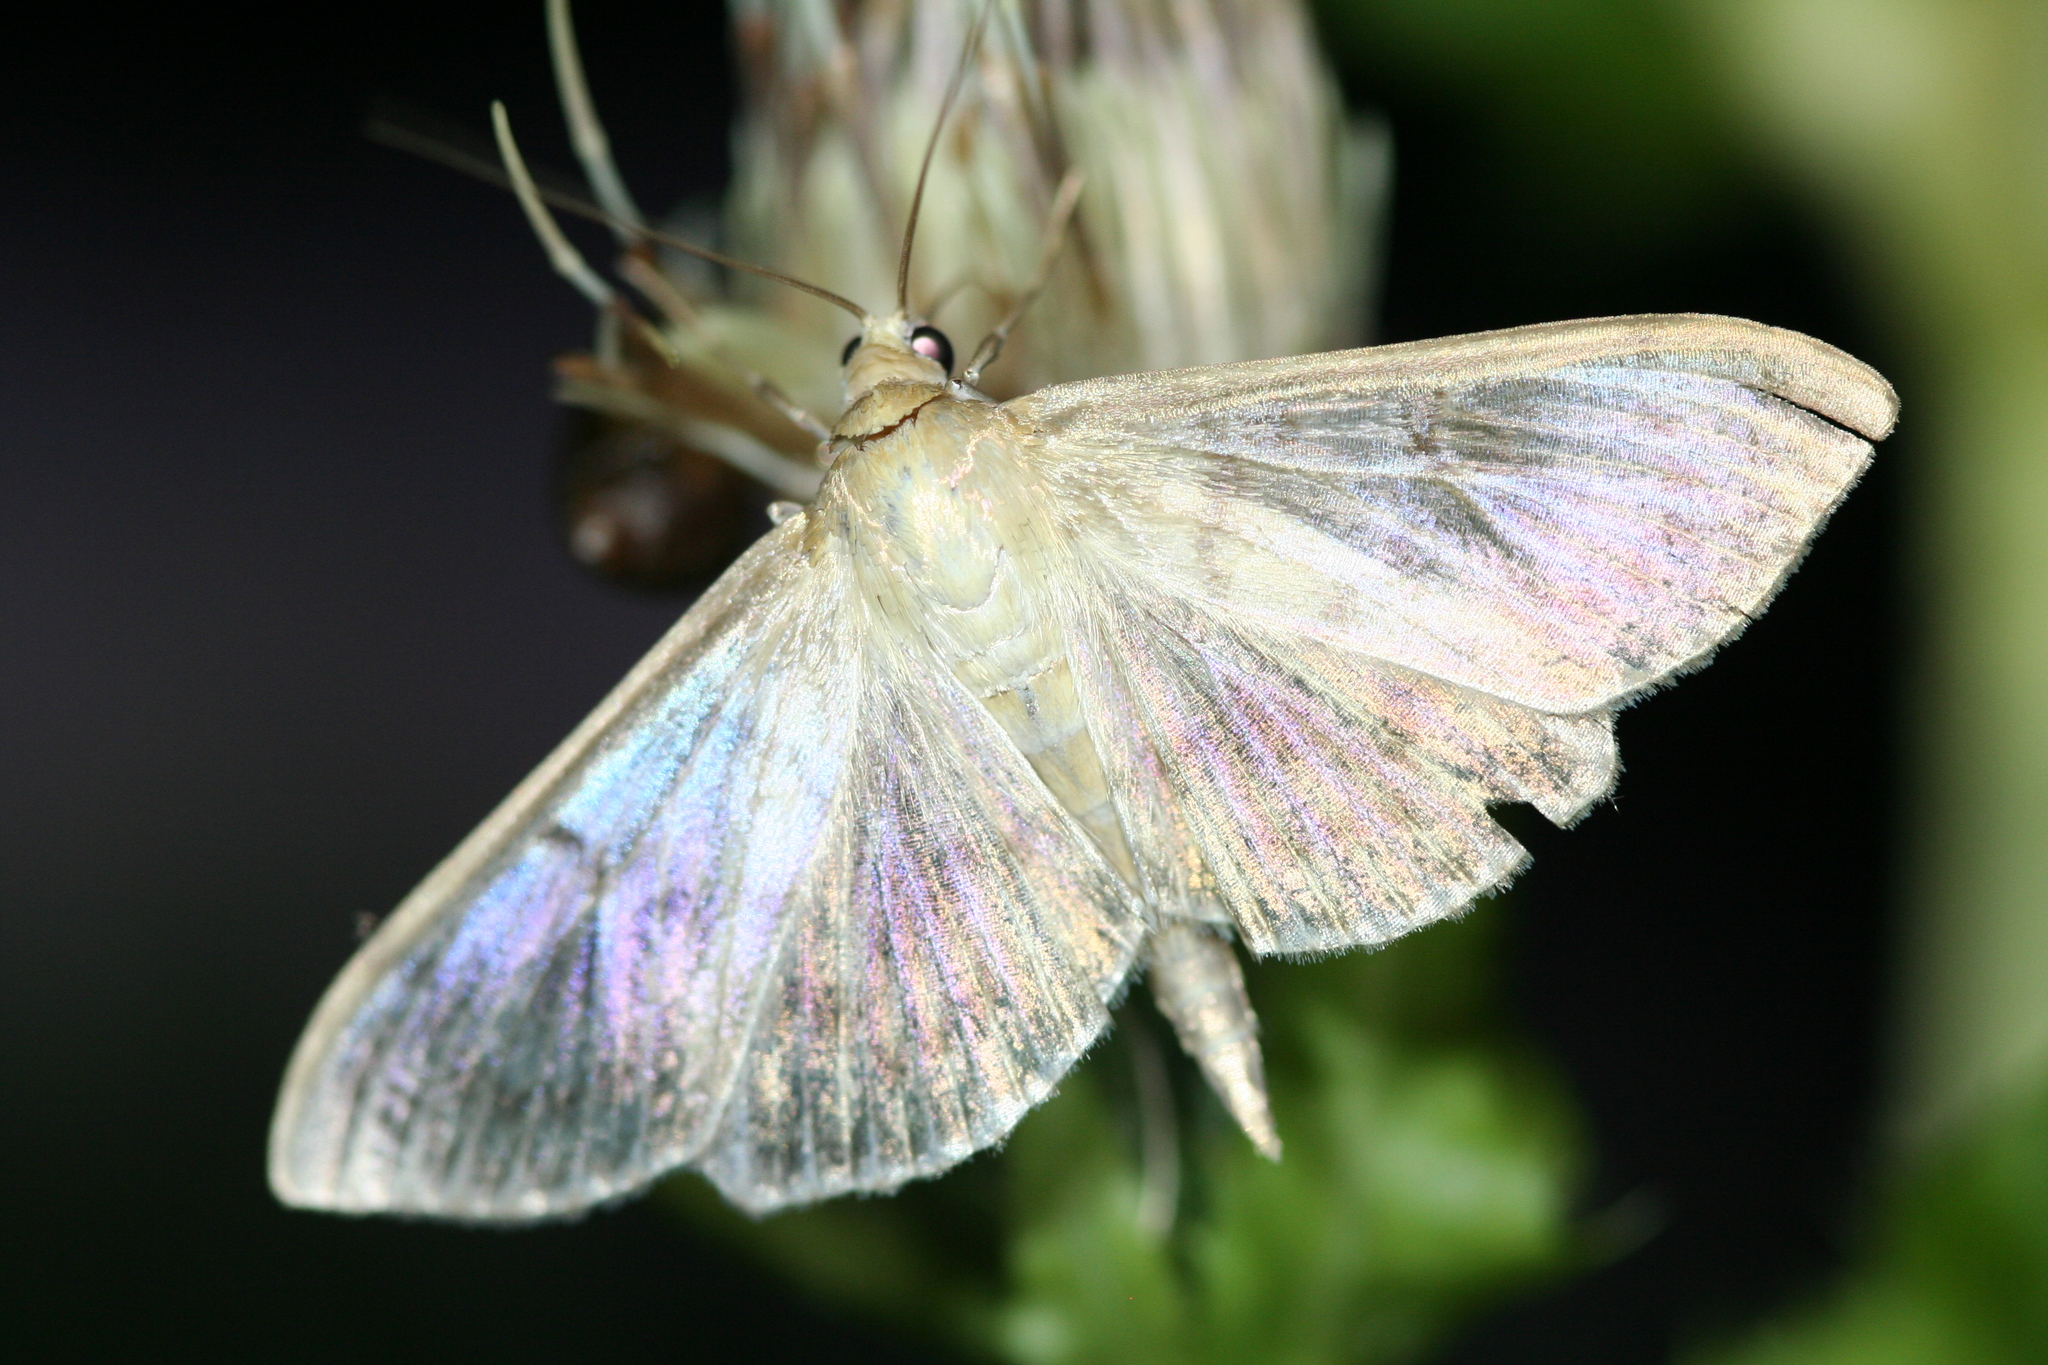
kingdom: Animalia
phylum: Arthropoda
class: Insecta
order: Lepidoptera
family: Crambidae
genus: Patania
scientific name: Patania ruralis
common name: Mother of pearl
